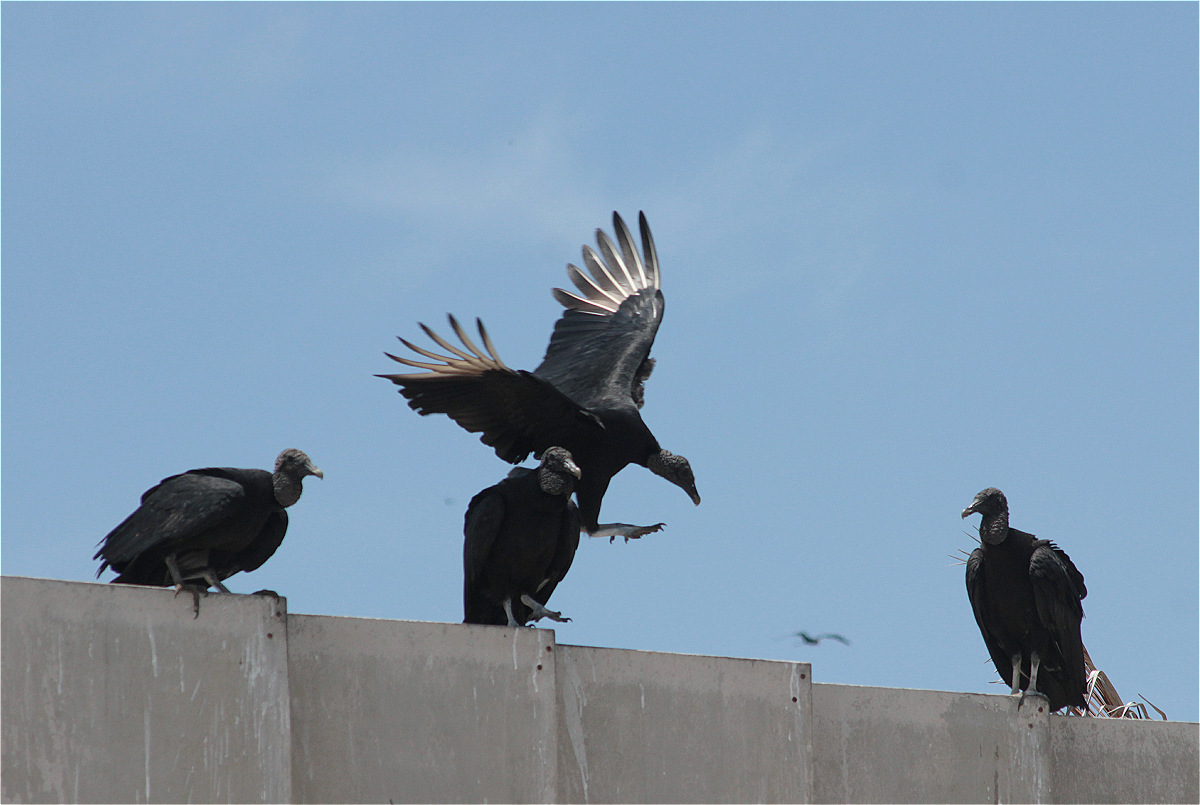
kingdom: Animalia
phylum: Chordata
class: Aves
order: Accipitriformes
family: Cathartidae
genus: Coragyps
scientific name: Coragyps atratus
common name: Black vulture
